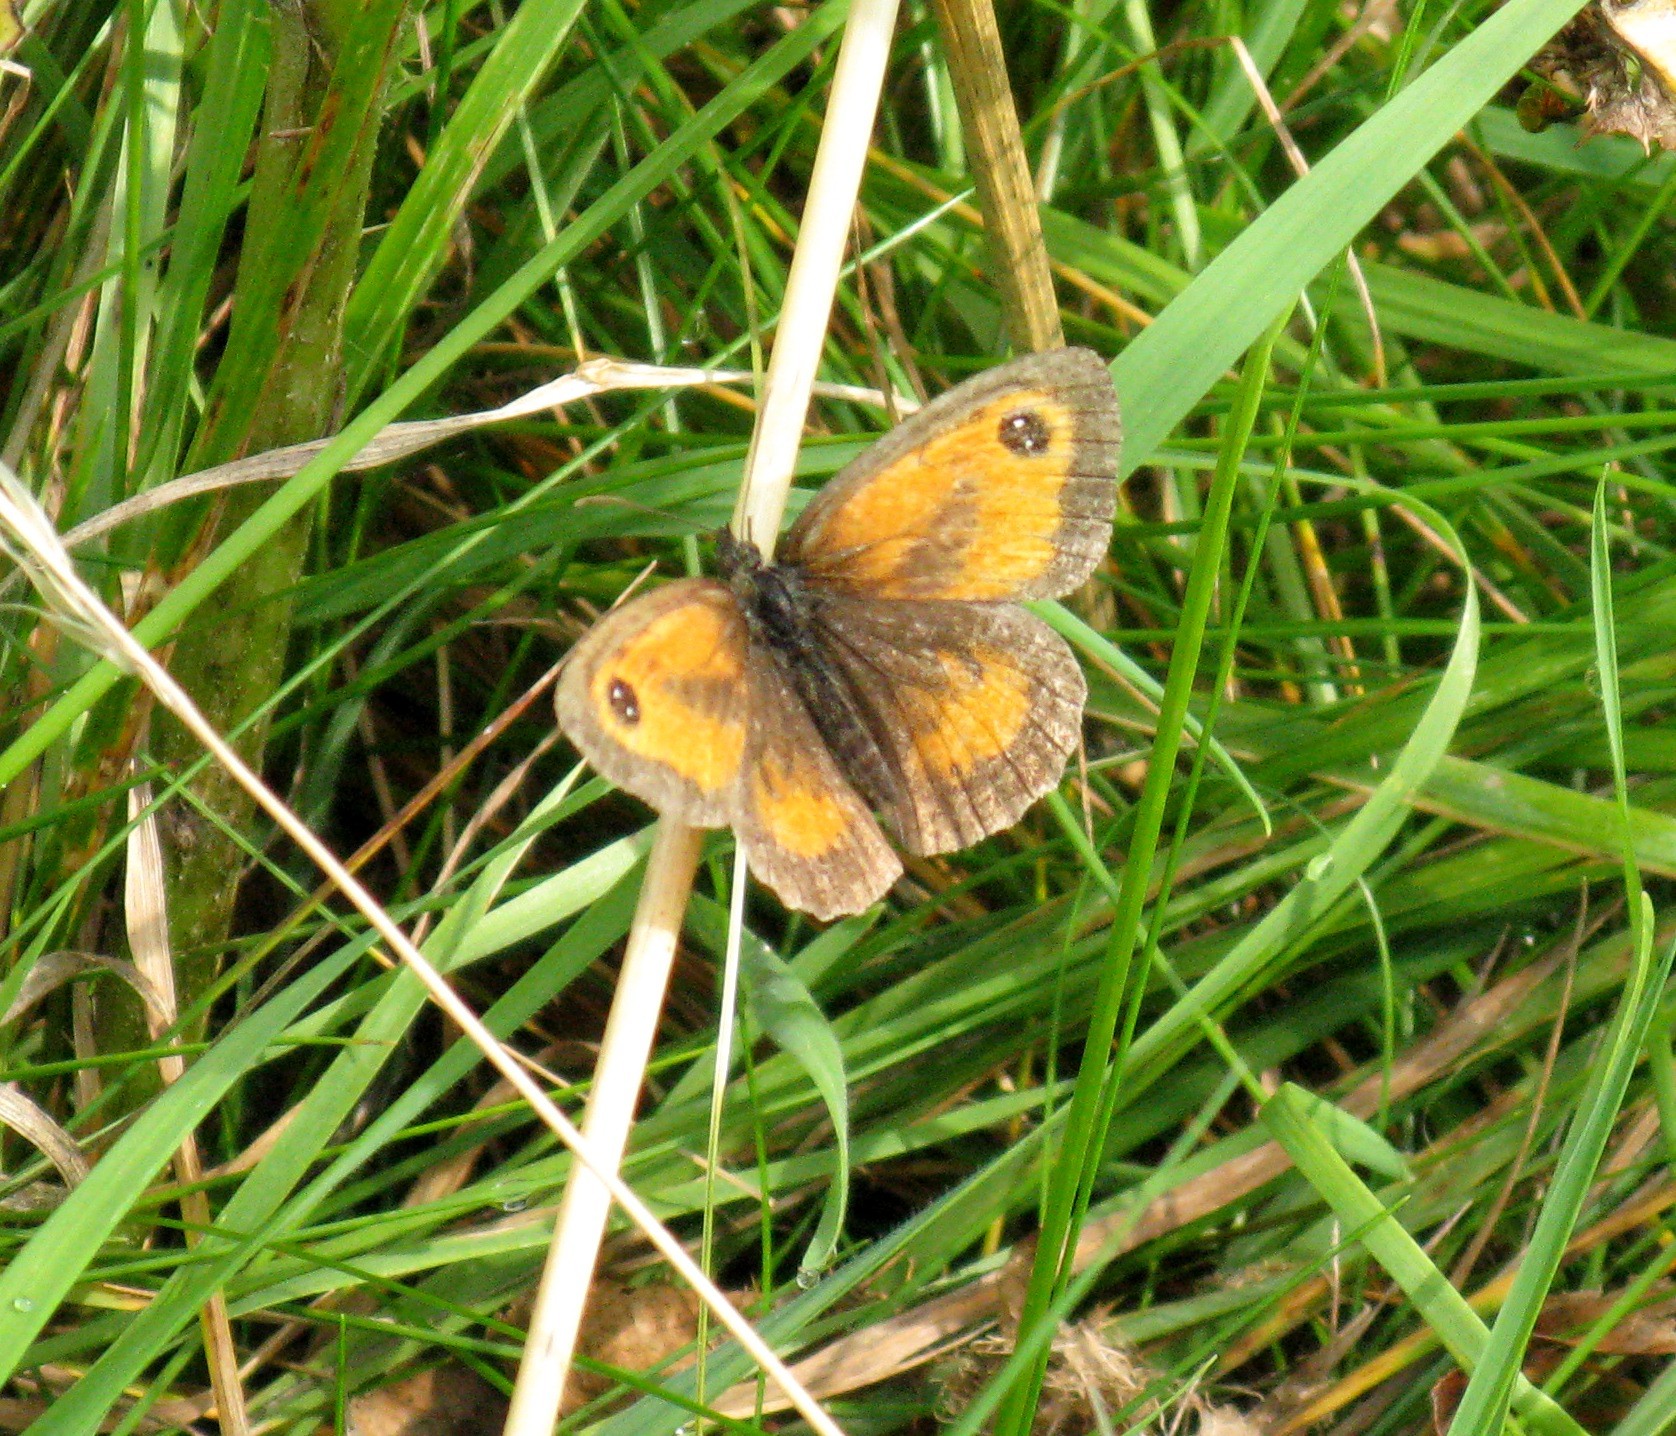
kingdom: Animalia
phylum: Arthropoda
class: Insecta
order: Lepidoptera
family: Nymphalidae
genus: Pyronia
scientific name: Pyronia tithonus
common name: Gatekeeper
